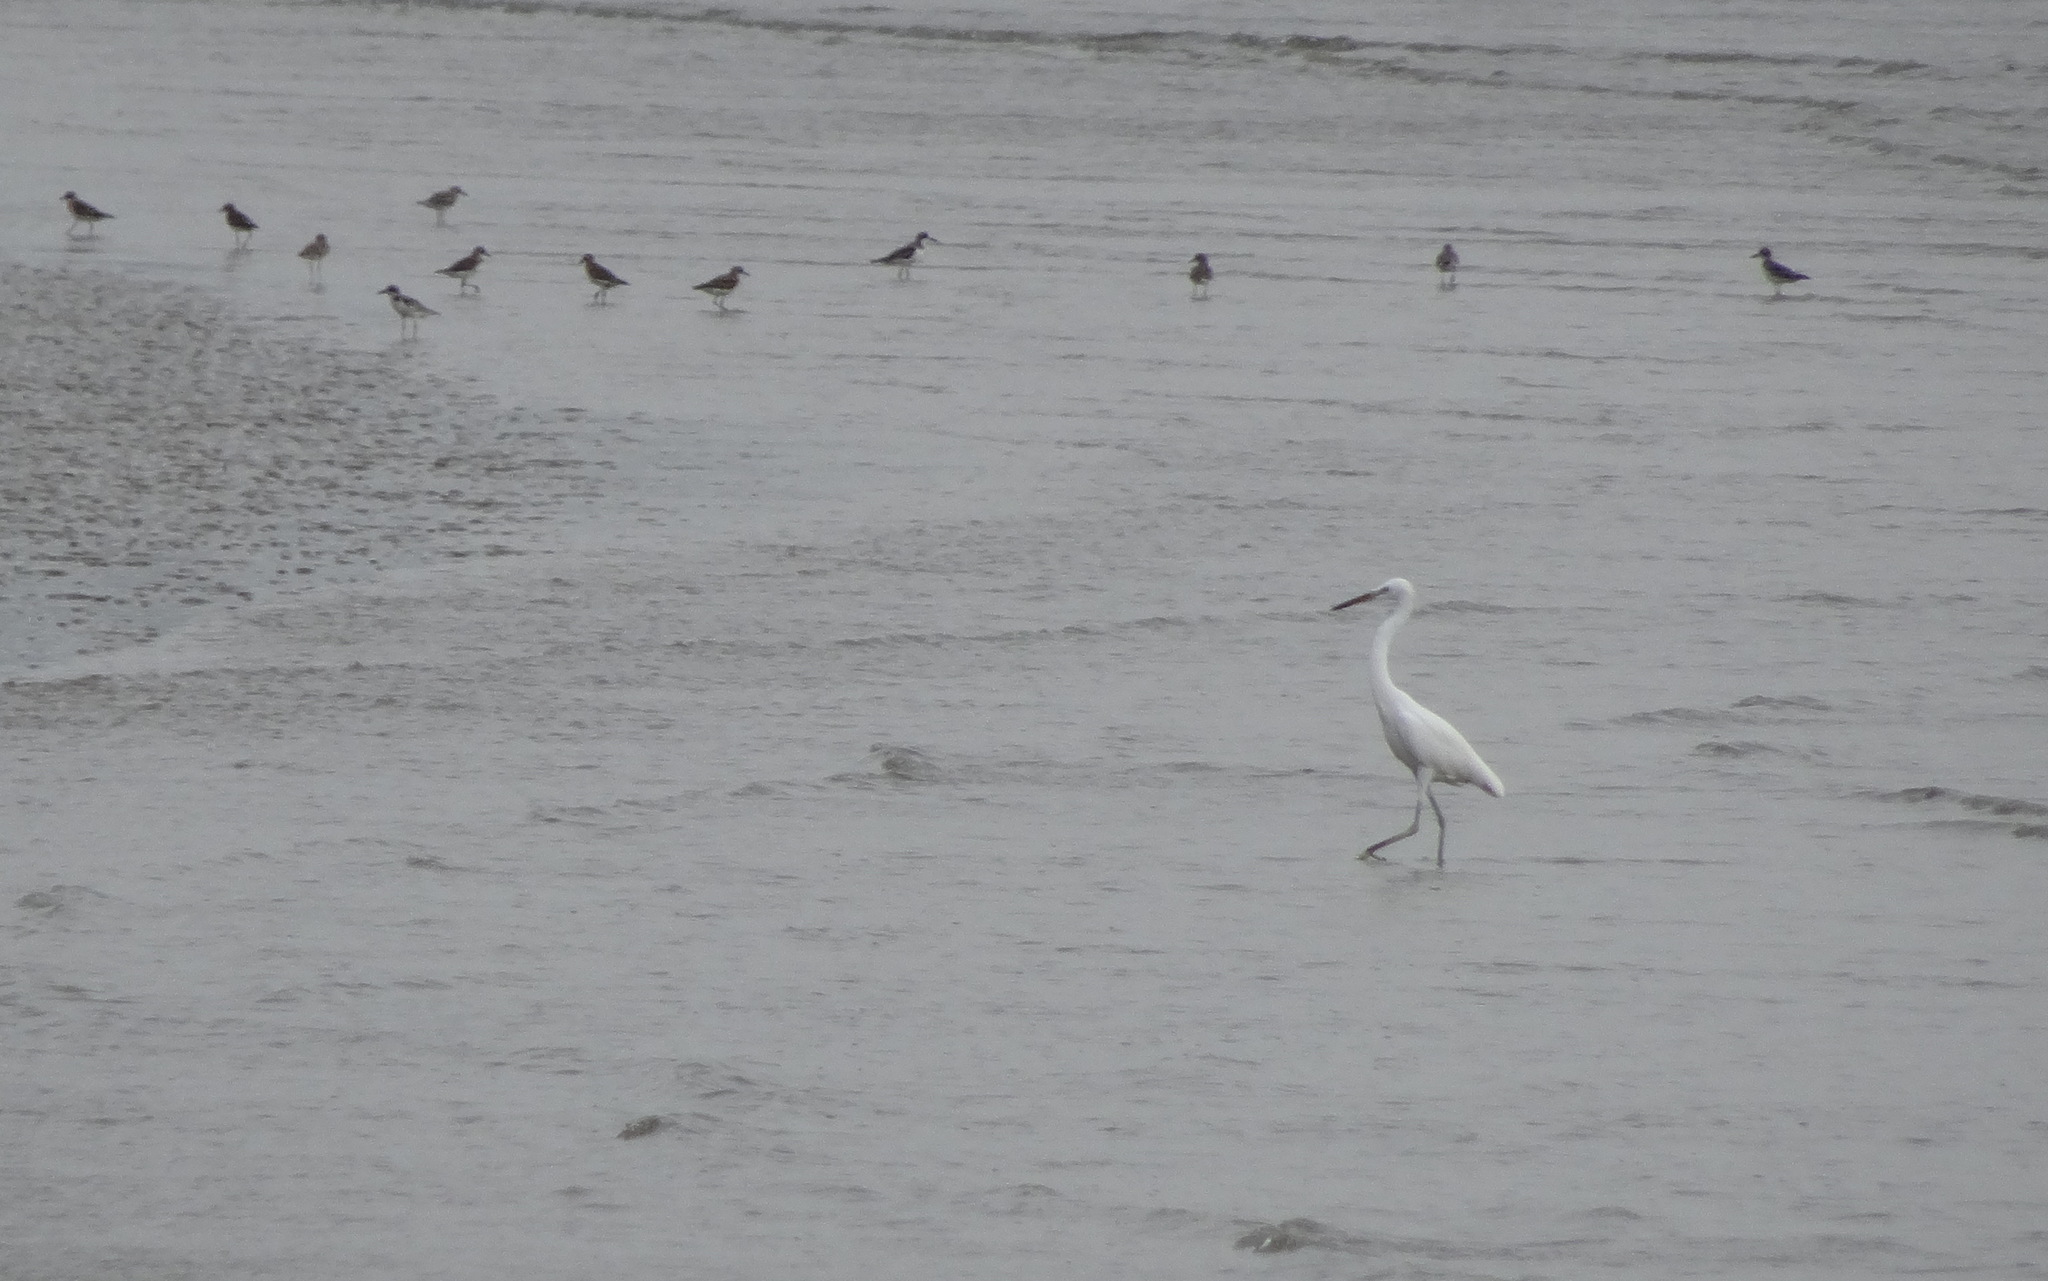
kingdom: Animalia
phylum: Chordata
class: Aves
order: Pelecaniformes
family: Ardeidae
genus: Egretta
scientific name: Egretta eulophotes
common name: Chinese egret
